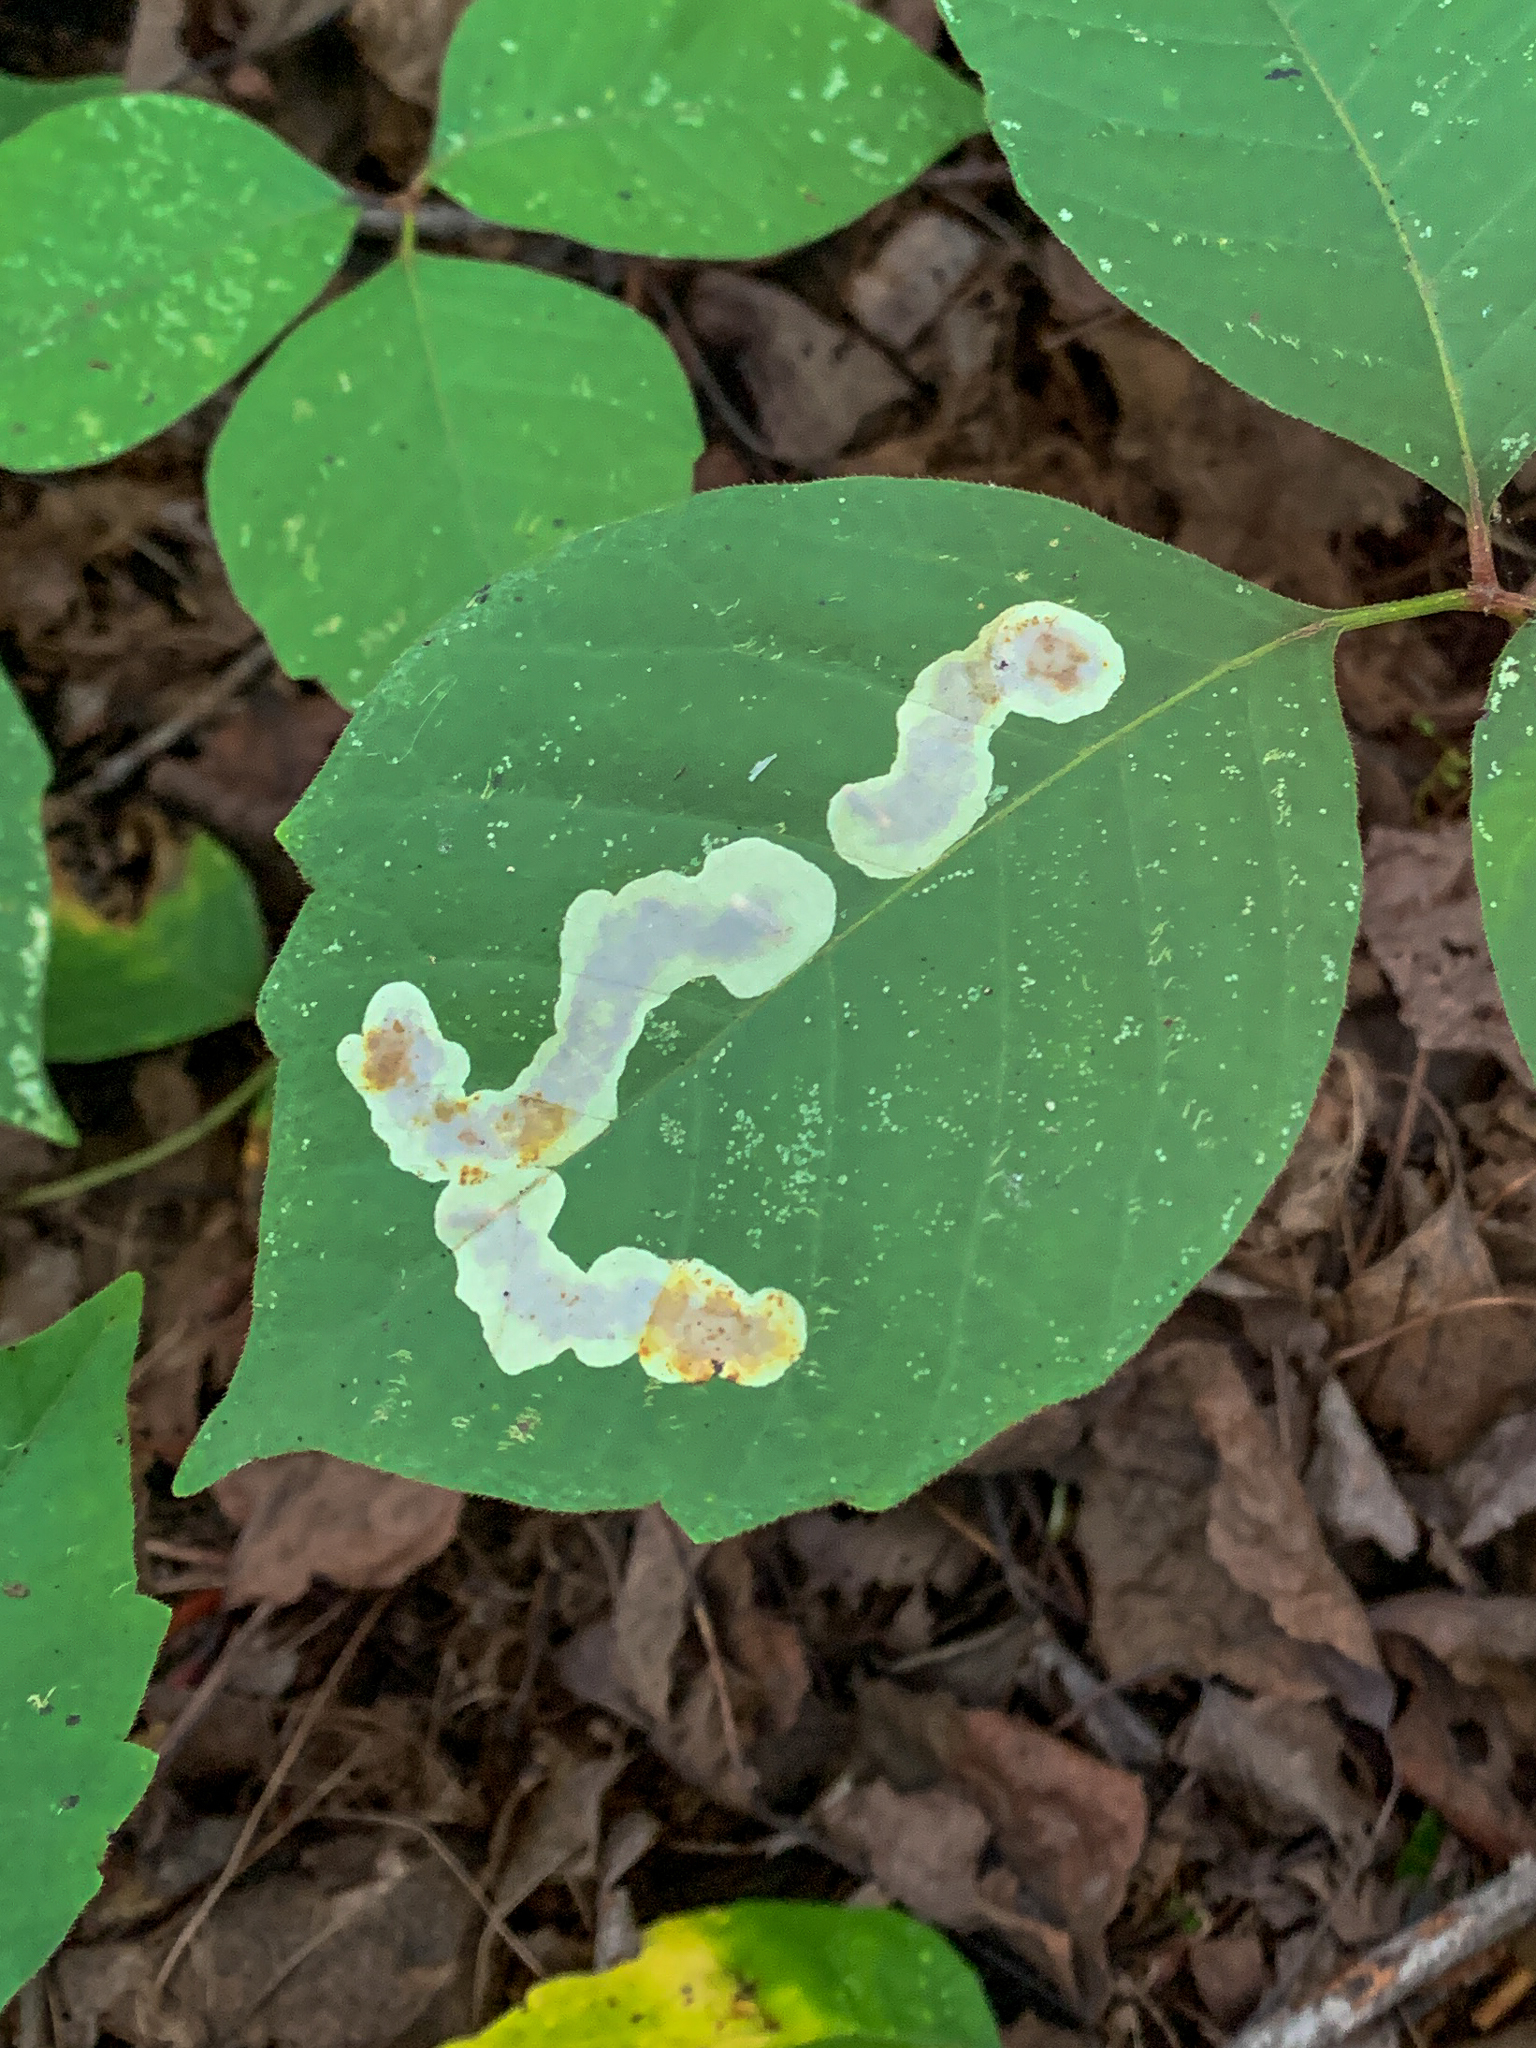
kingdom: Animalia
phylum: Arthropoda
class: Insecta
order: Lepidoptera
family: Gracillariidae
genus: Cameraria
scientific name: Cameraria guttifinitella
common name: Poison ivy leaf-miner moth
